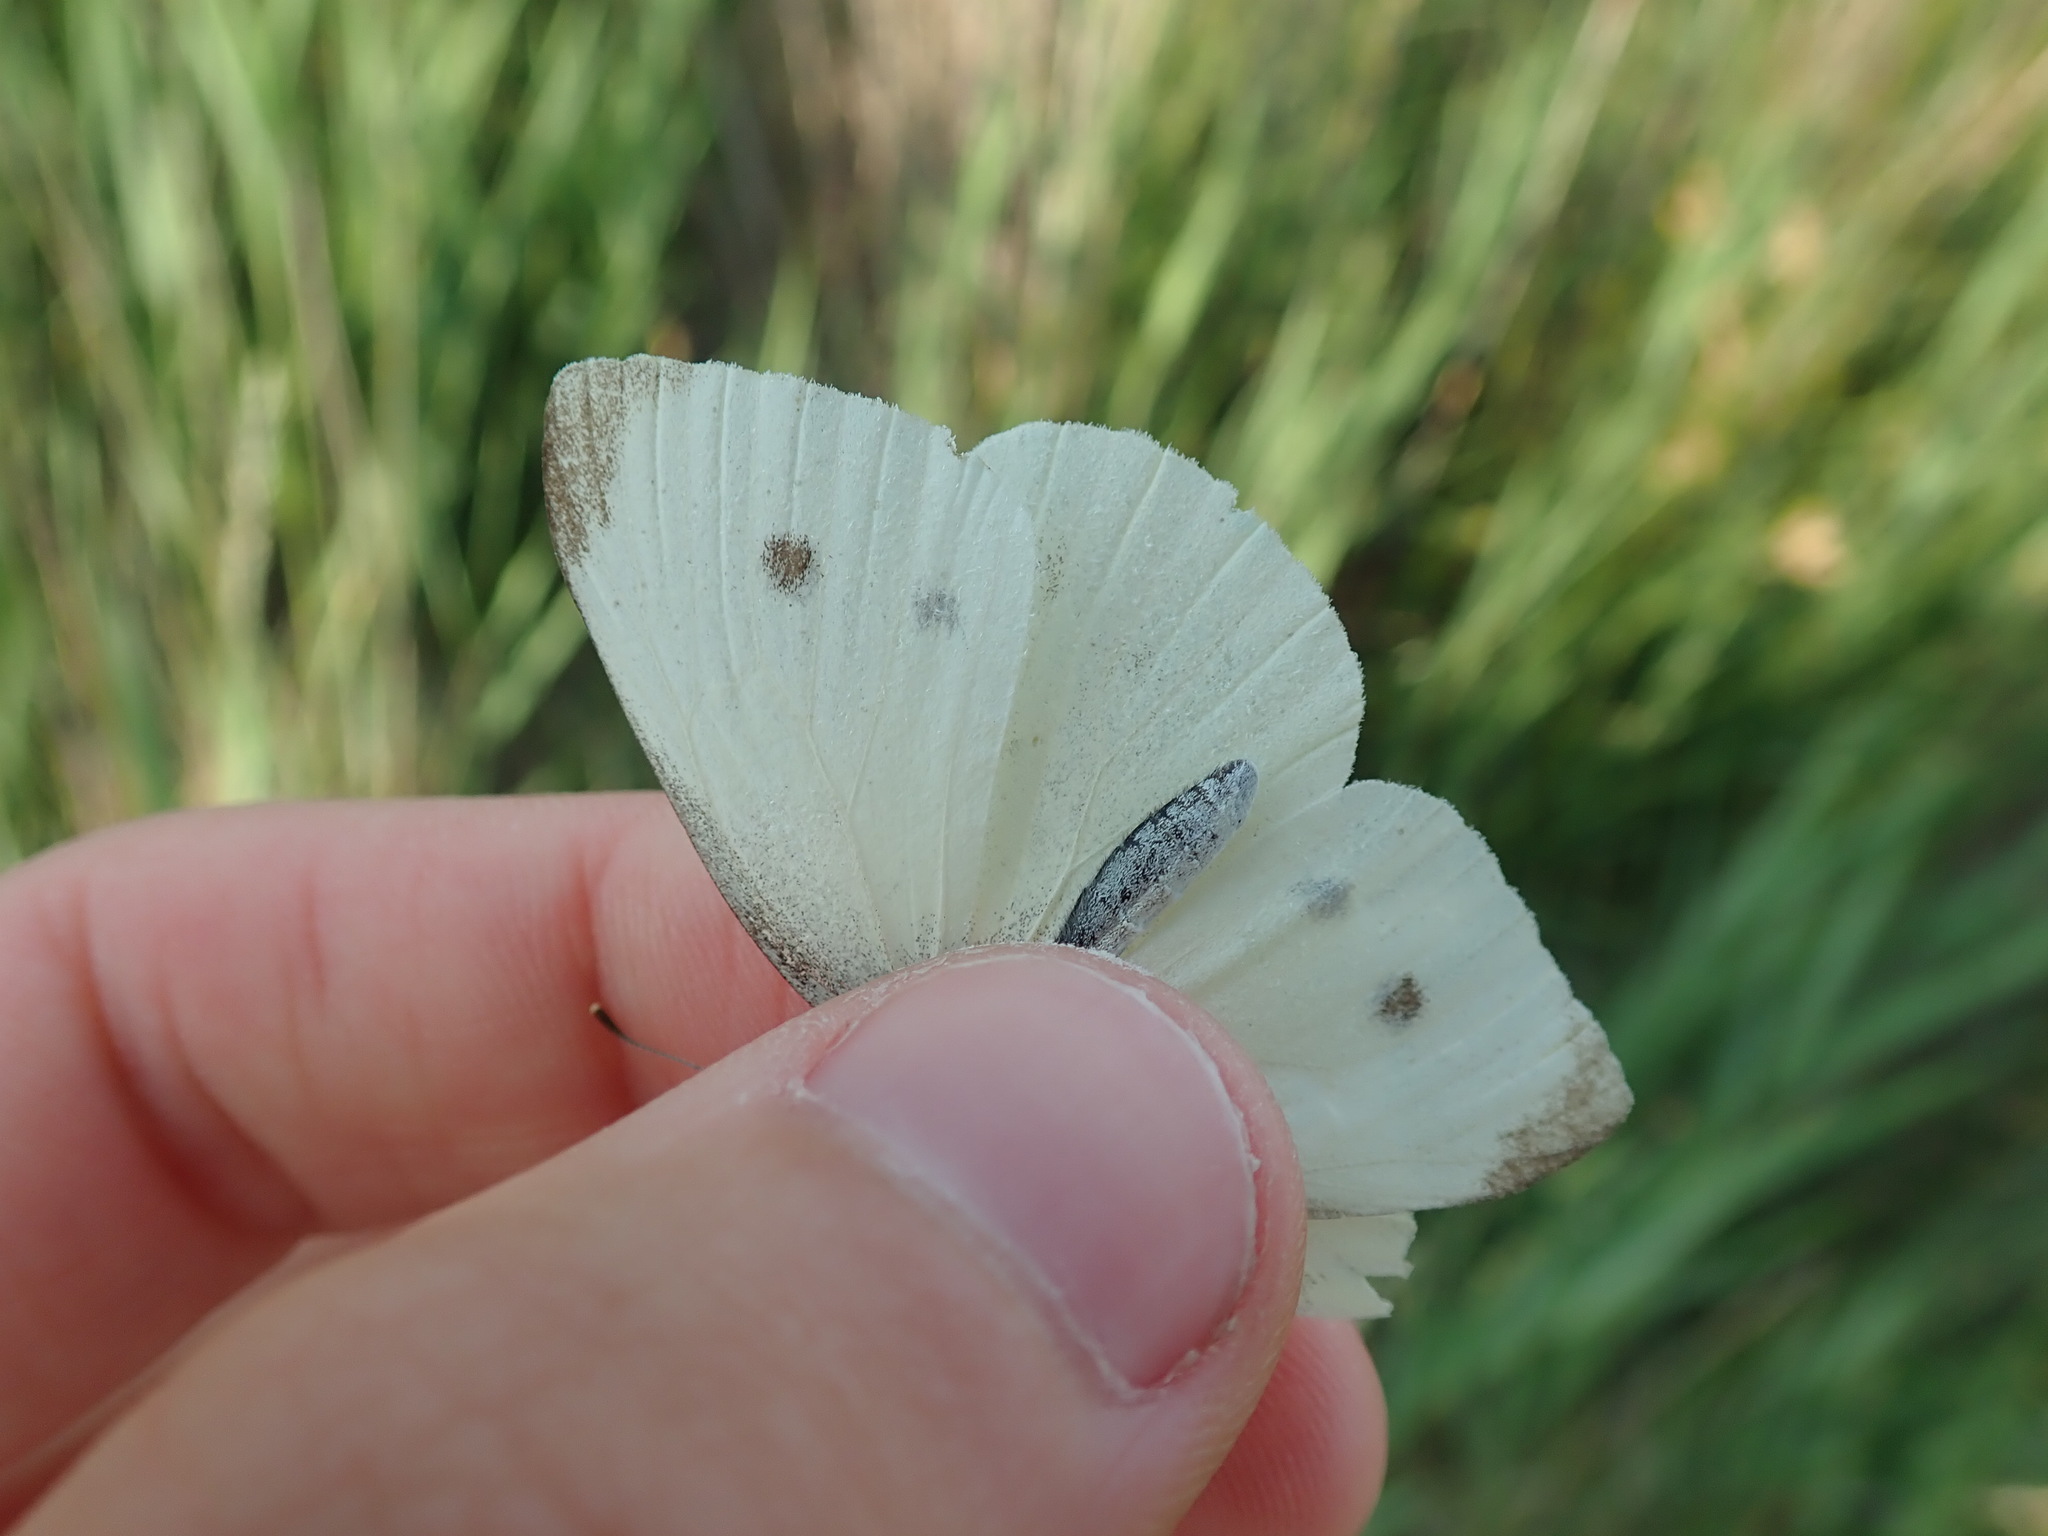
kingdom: Animalia
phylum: Arthropoda
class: Insecta
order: Lepidoptera
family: Pieridae
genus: Pieris
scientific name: Pieris rapae
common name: Small white
